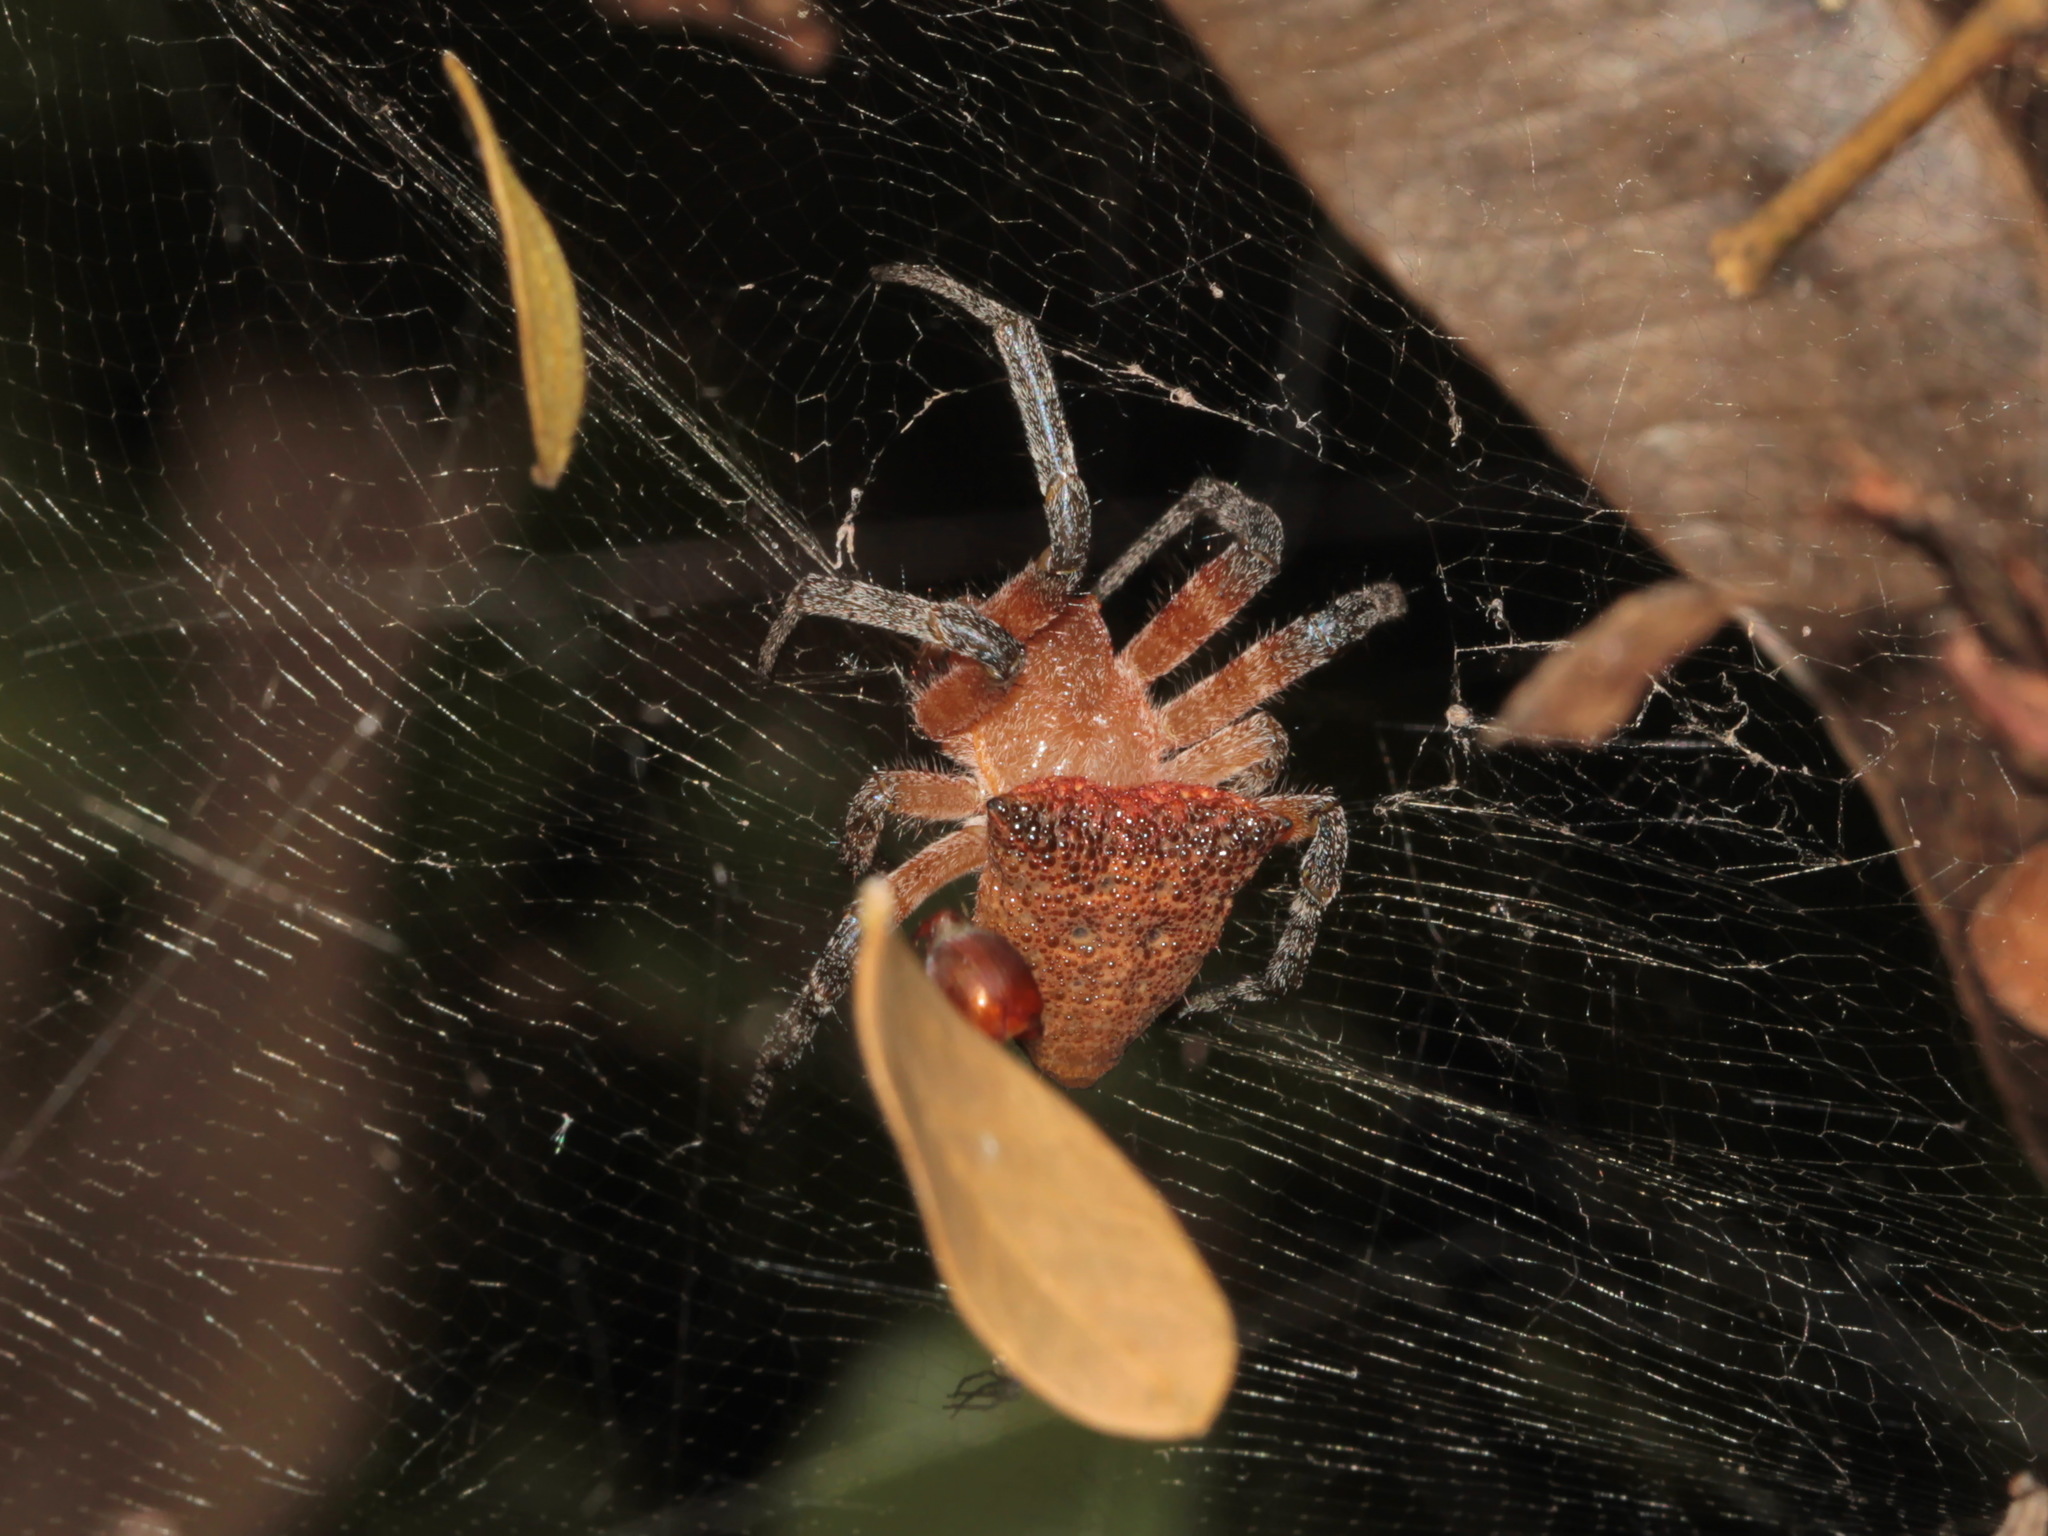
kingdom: Animalia
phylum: Arthropoda
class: Arachnida
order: Araneae
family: Araneidae
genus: Cyrtophora
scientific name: Cyrtophora unicolor
